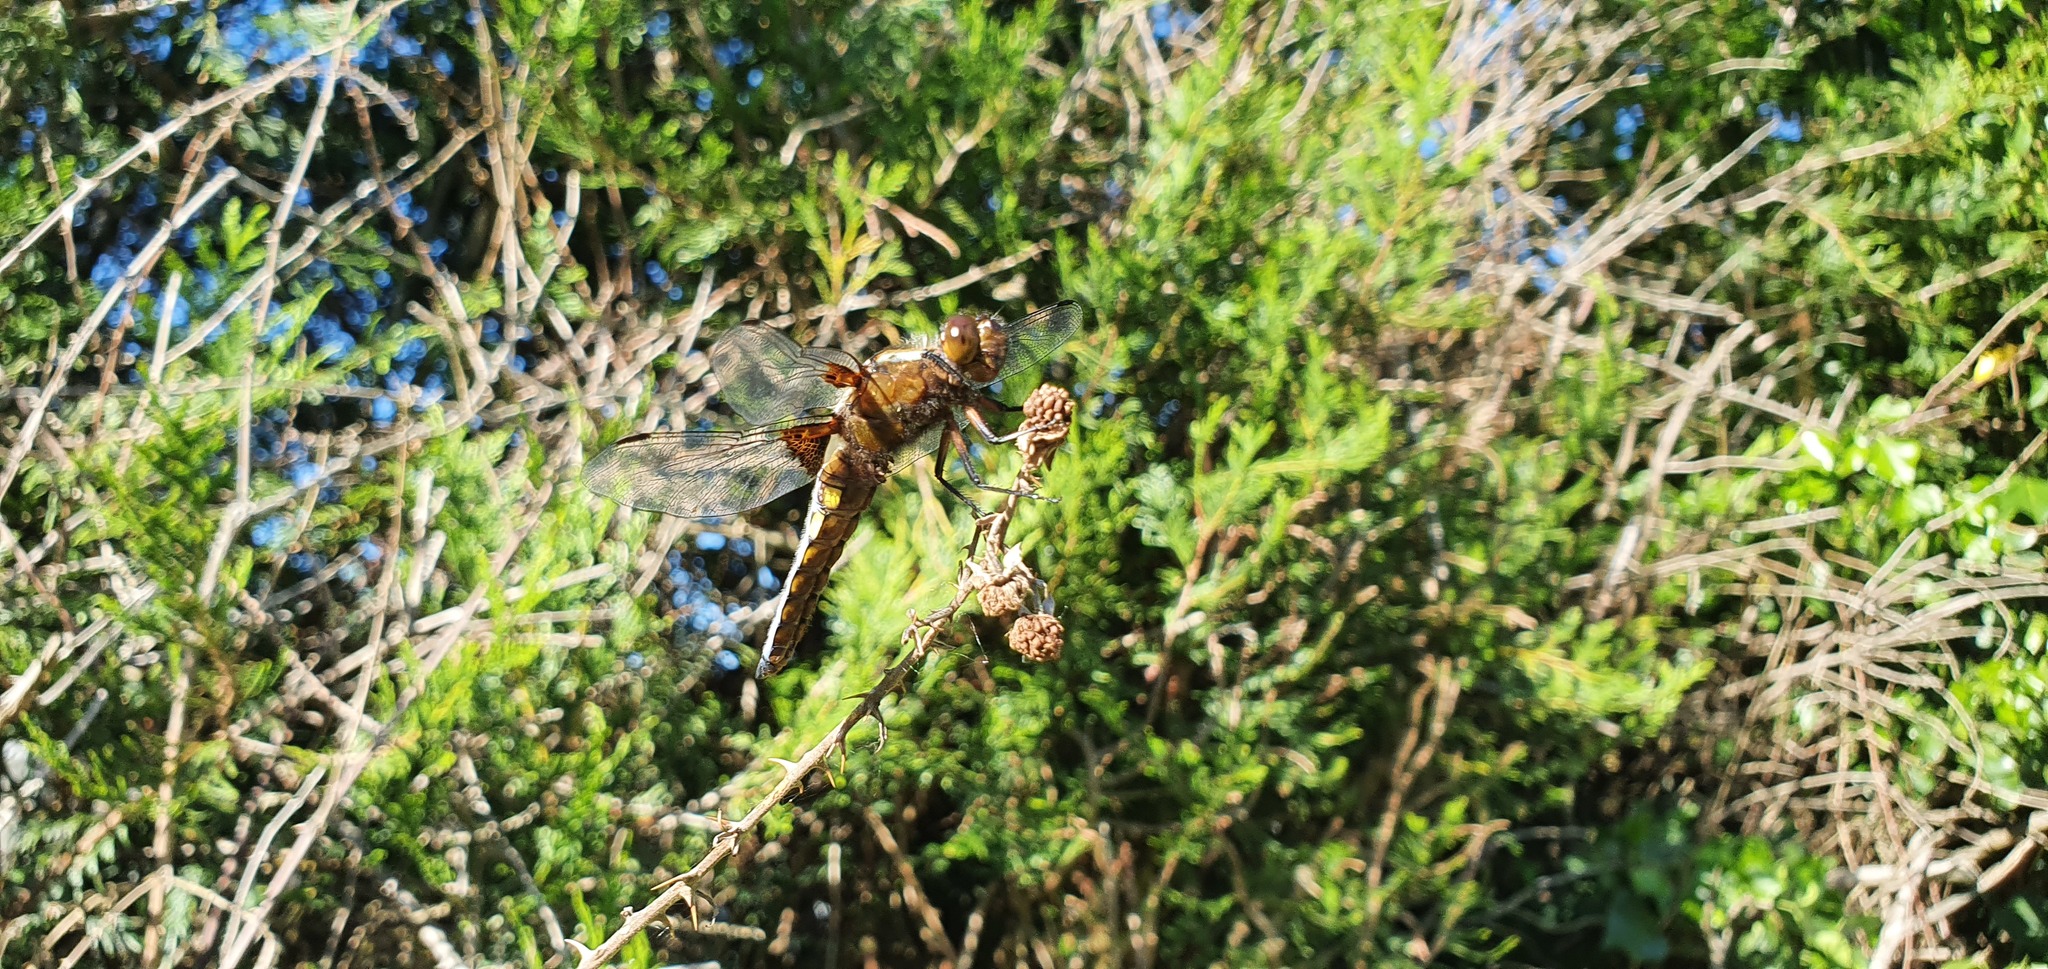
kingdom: Animalia
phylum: Arthropoda
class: Insecta
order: Odonata
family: Libellulidae
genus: Libellula
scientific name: Libellula depressa
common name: Broad-bodied chaser
